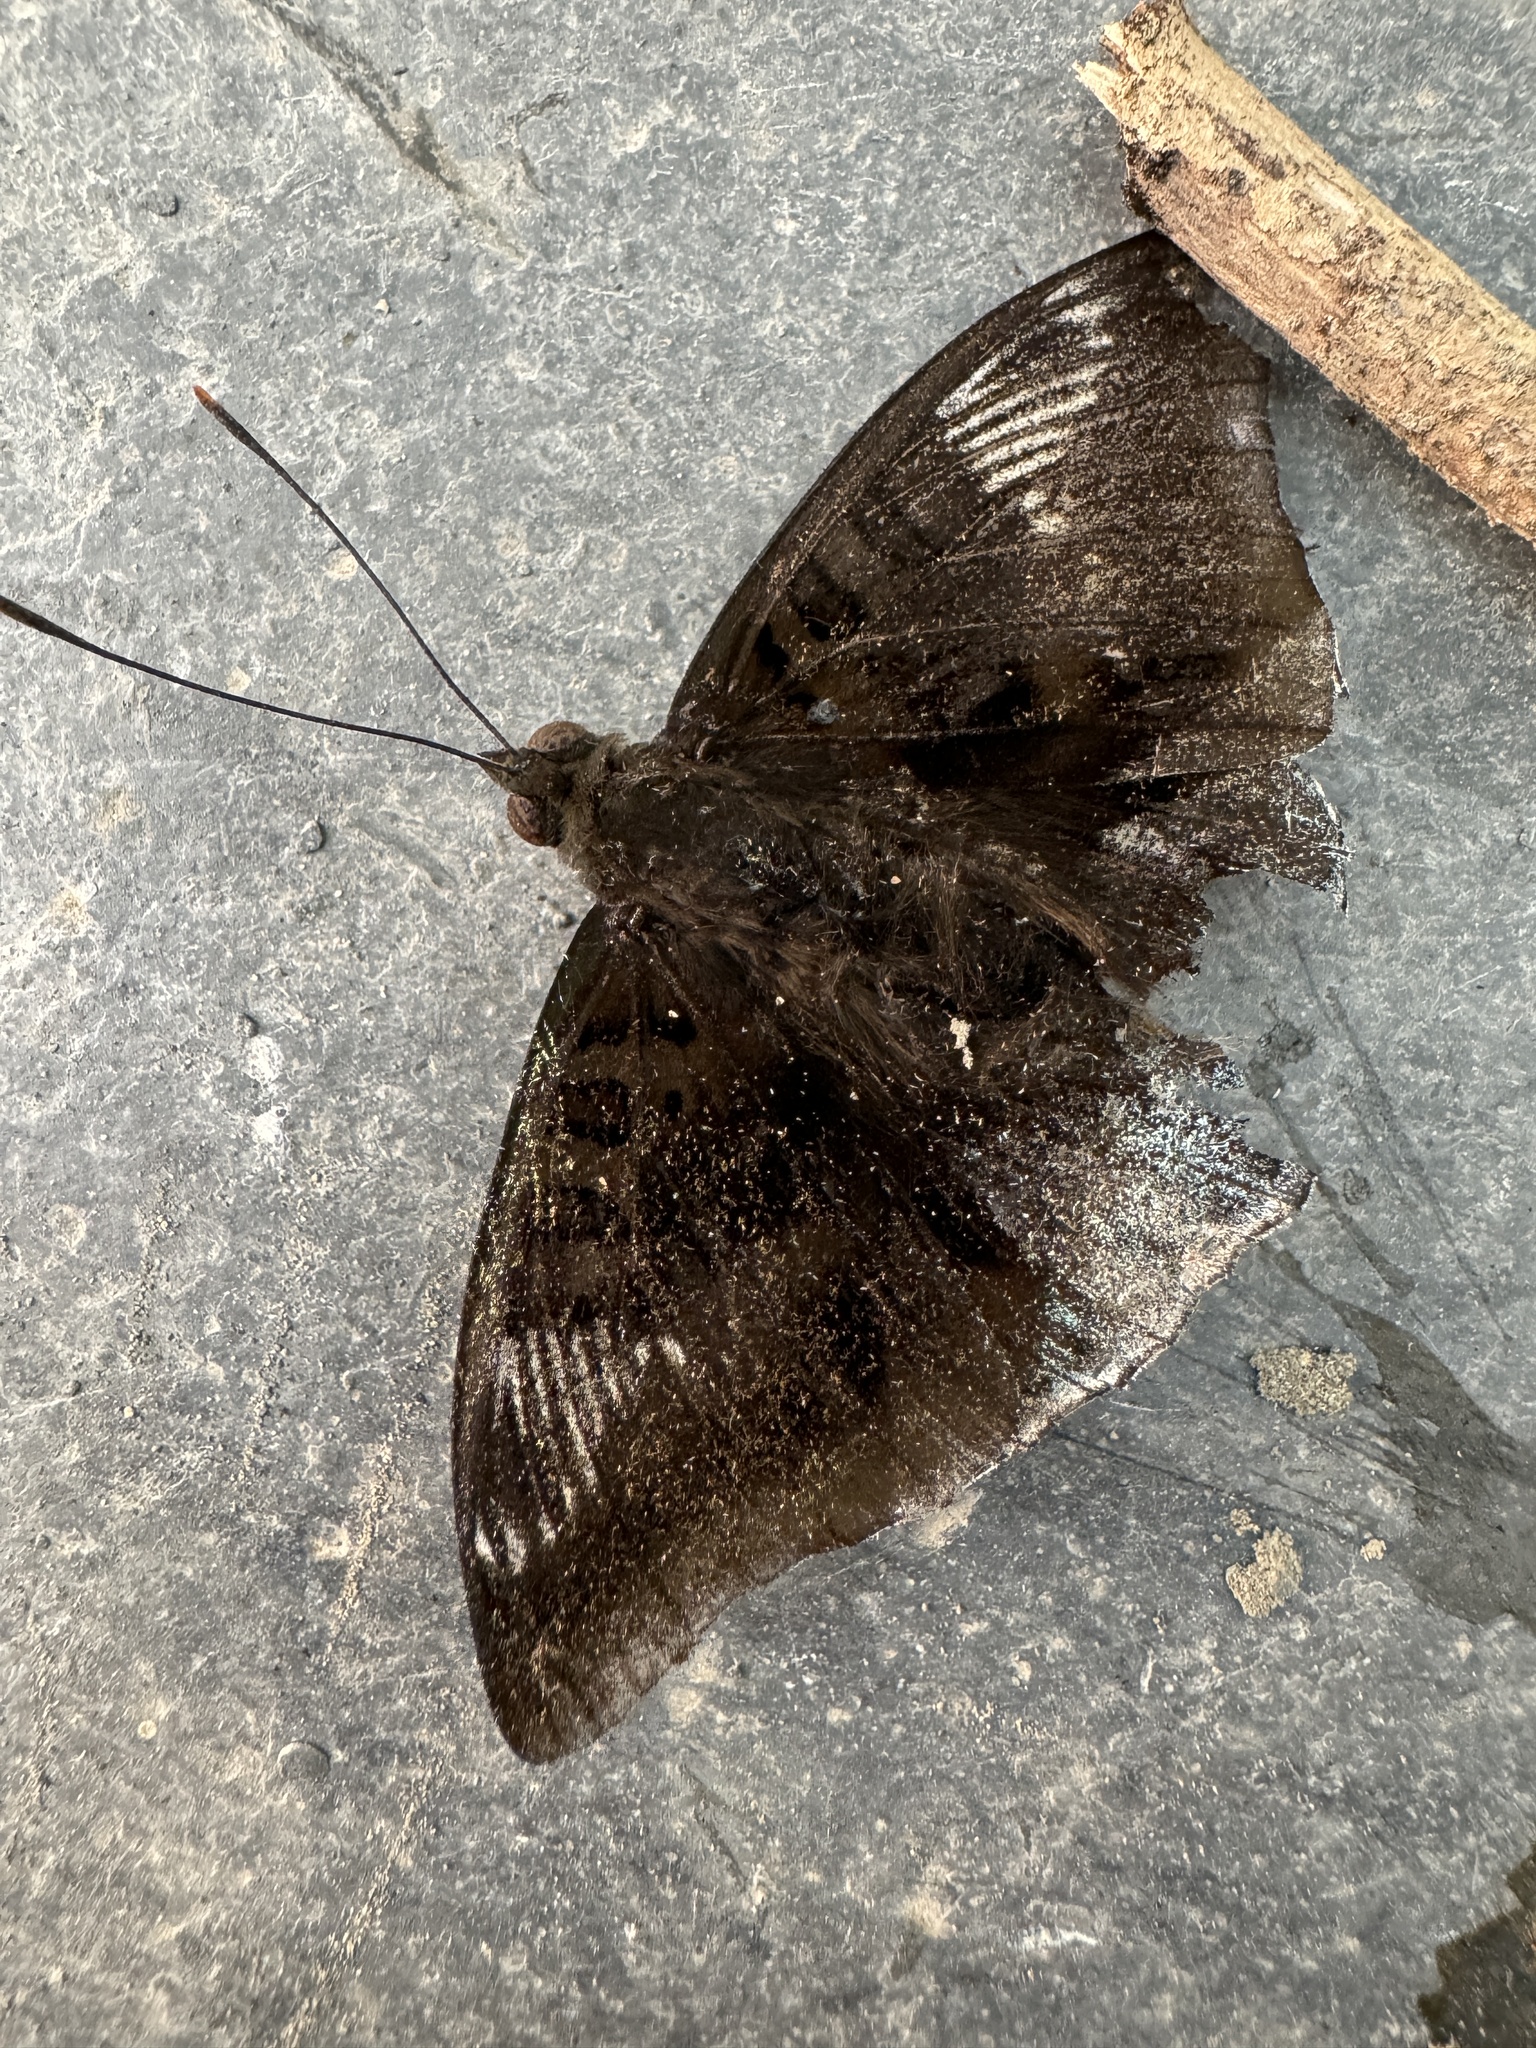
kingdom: Animalia
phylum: Arthropoda
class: Insecta
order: Lepidoptera
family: Nymphalidae
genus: Euthalia
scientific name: Euthalia phemius
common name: White-edged blue baron
